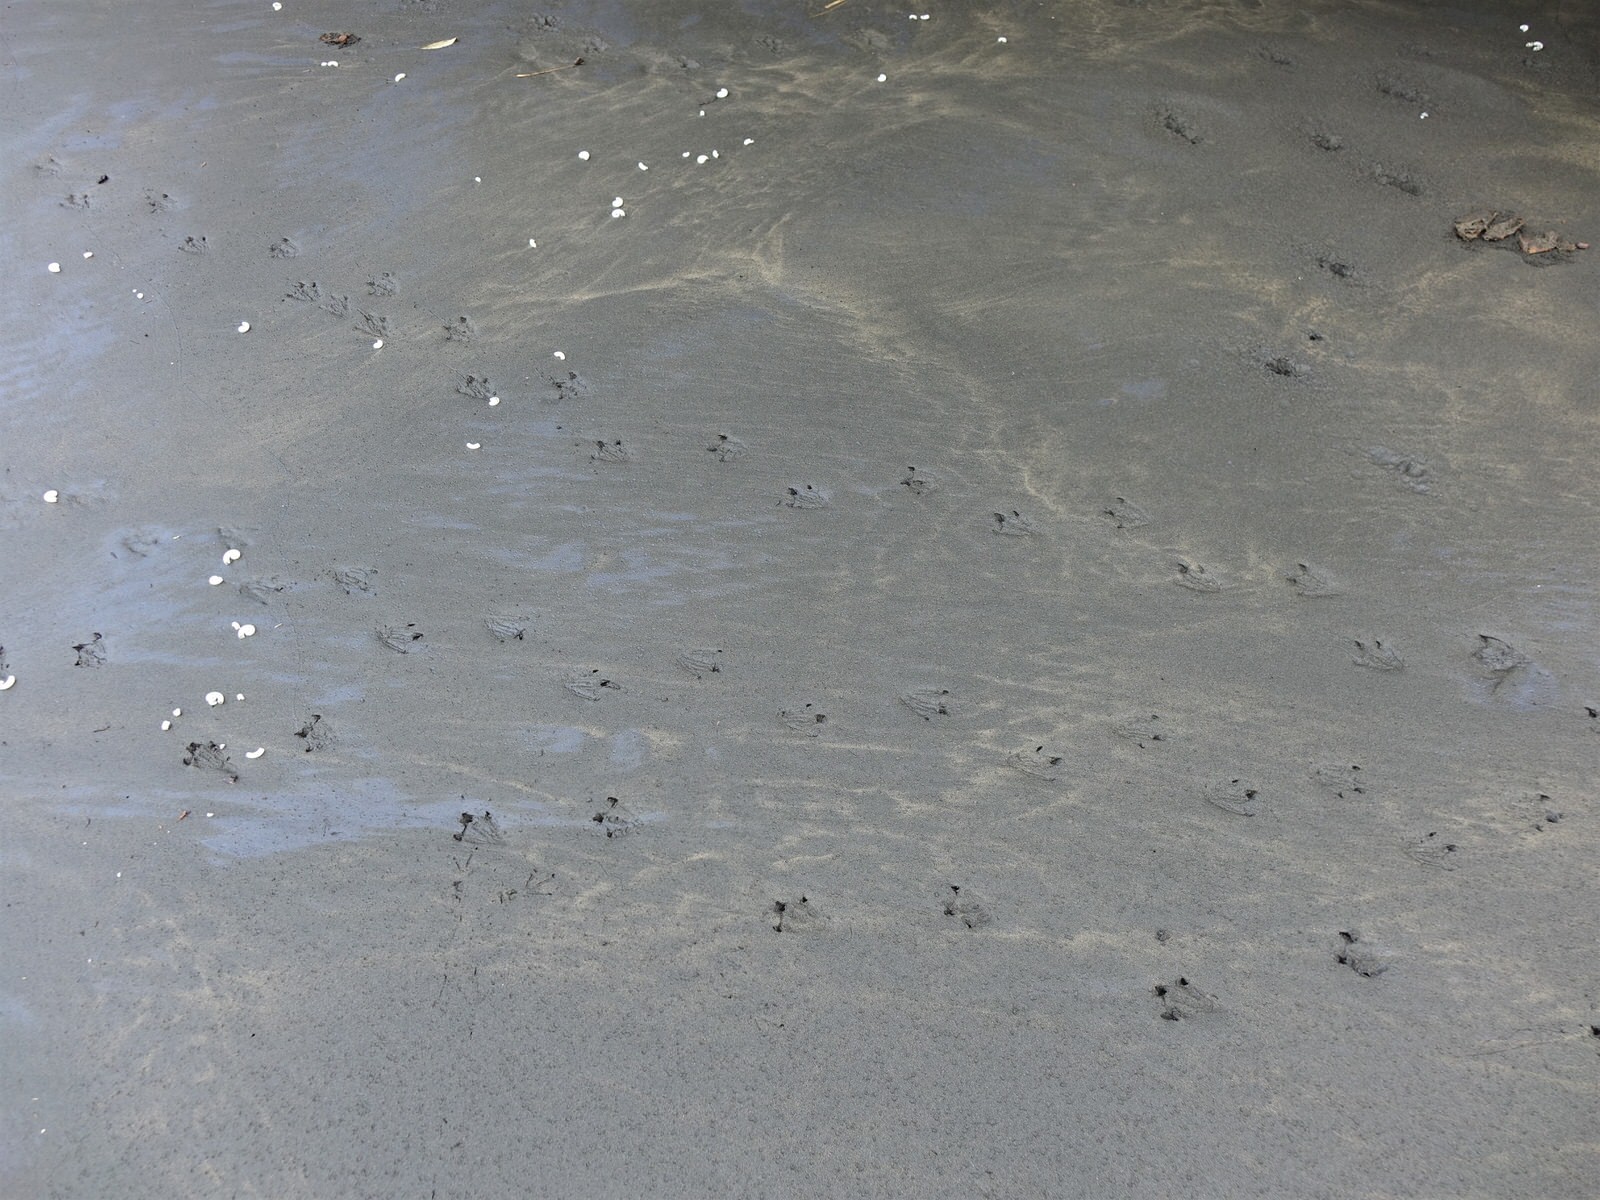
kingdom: Animalia
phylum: Chordata
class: Aves
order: Sphenisciformes
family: Spheniscidae
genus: Eudyptula
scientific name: Eudyptula minor
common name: Little penguin
